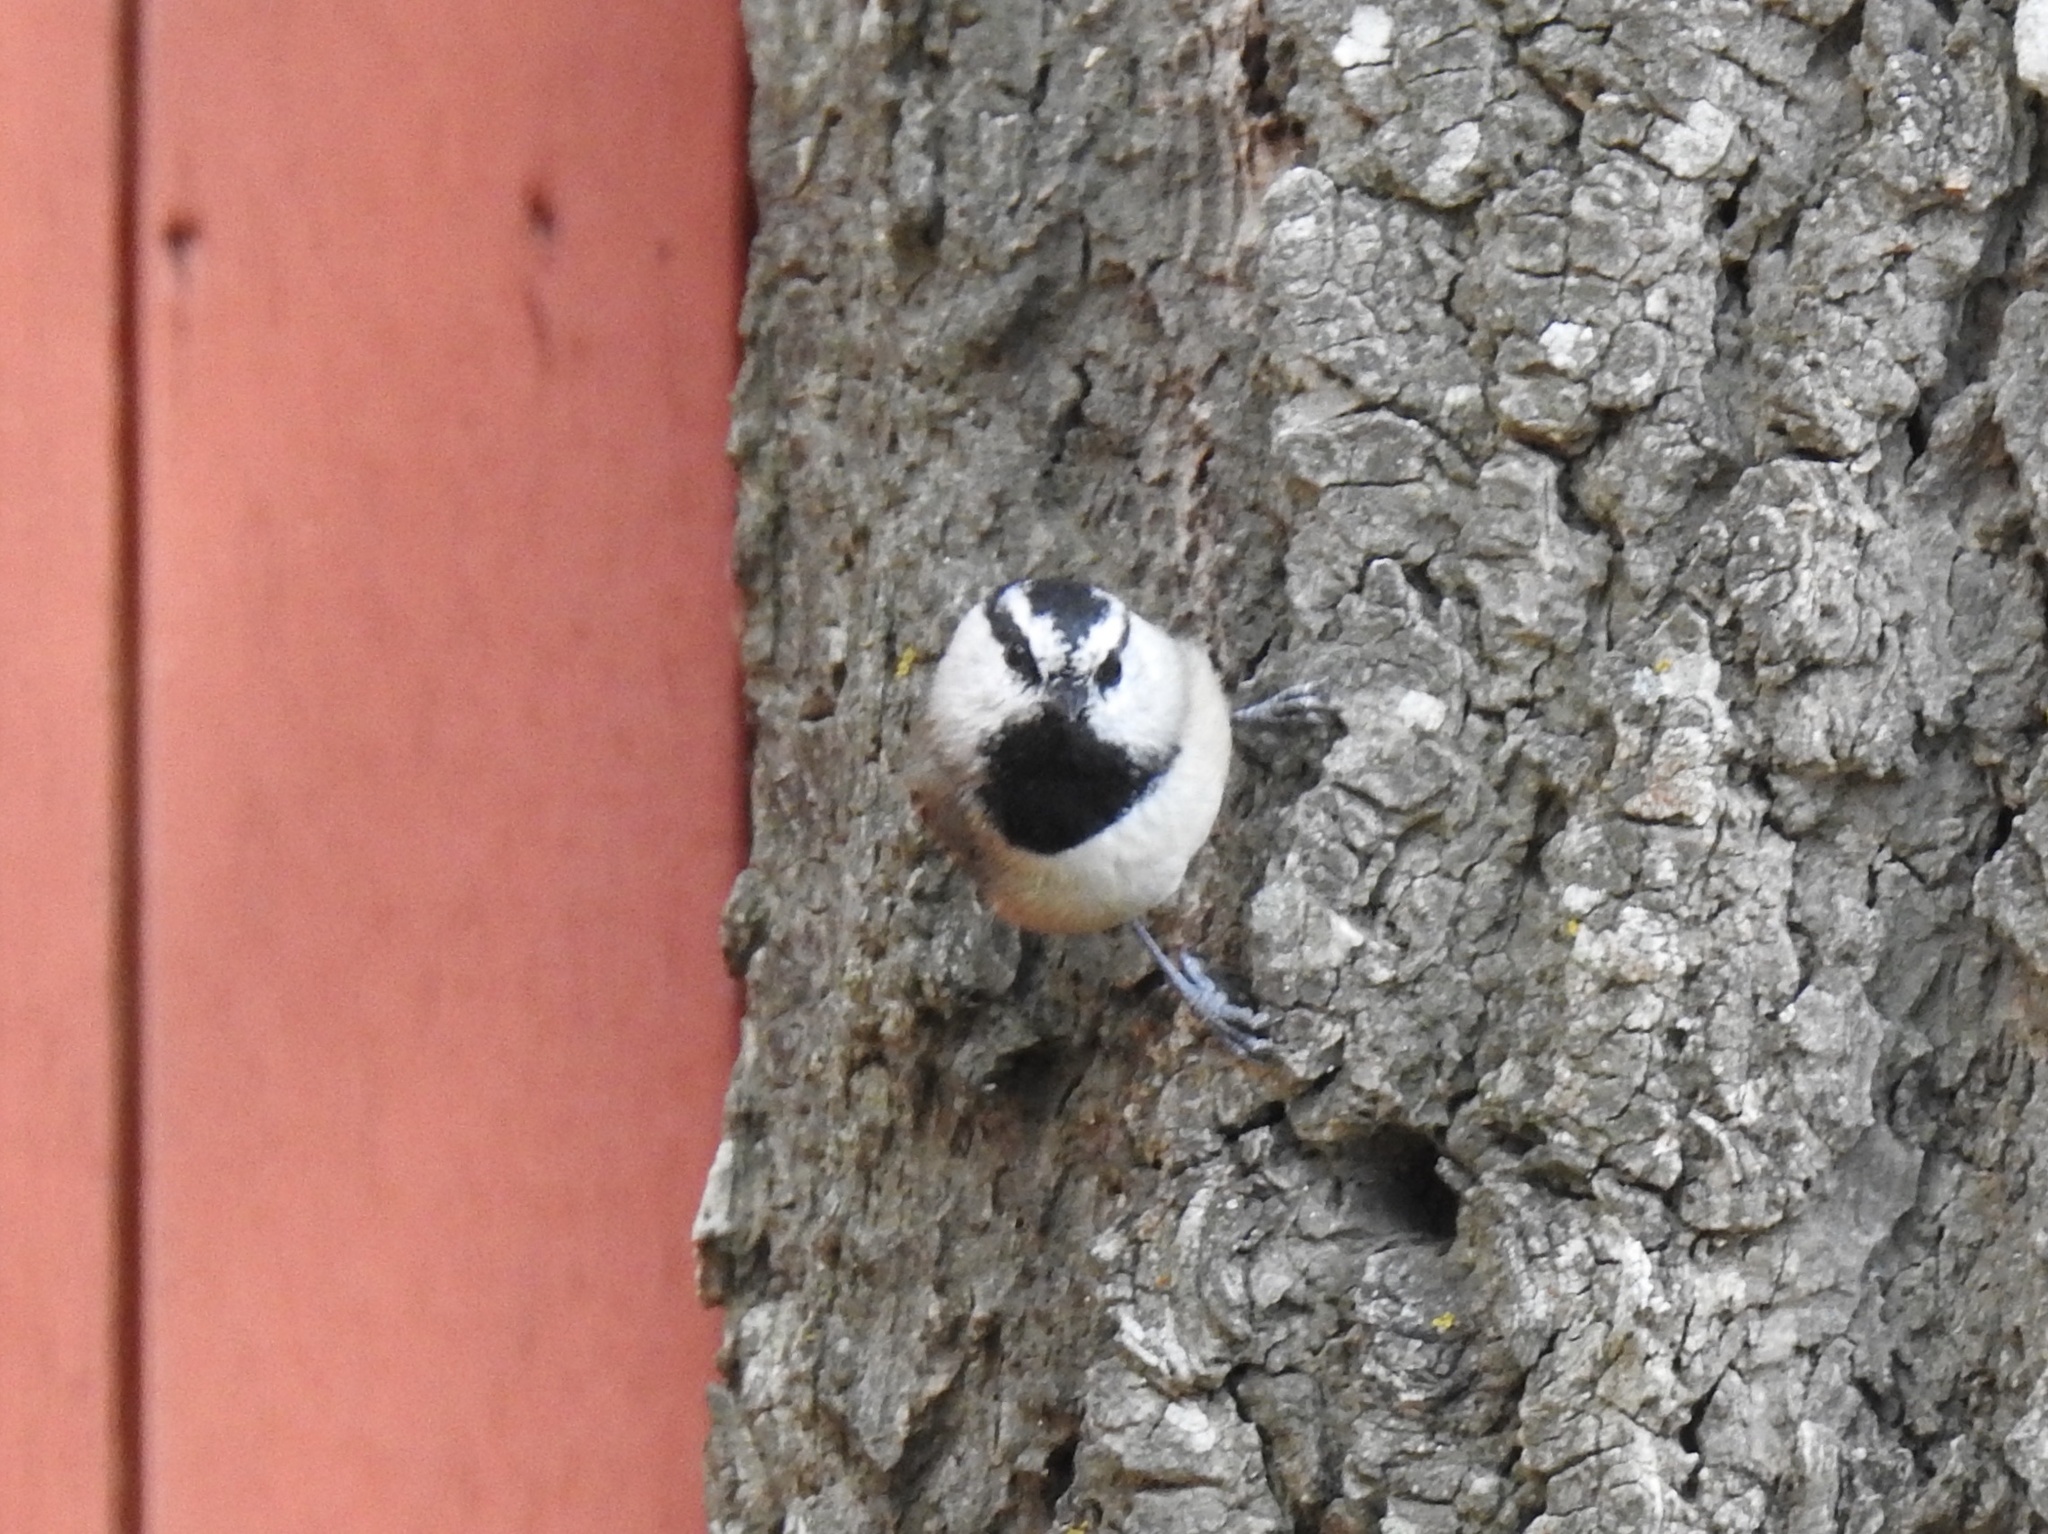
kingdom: Animalia
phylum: Chordata
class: Aves
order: Passeriformes
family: Paridae
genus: Poecile
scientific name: Poecile gambeli
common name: Mountain chickadee
